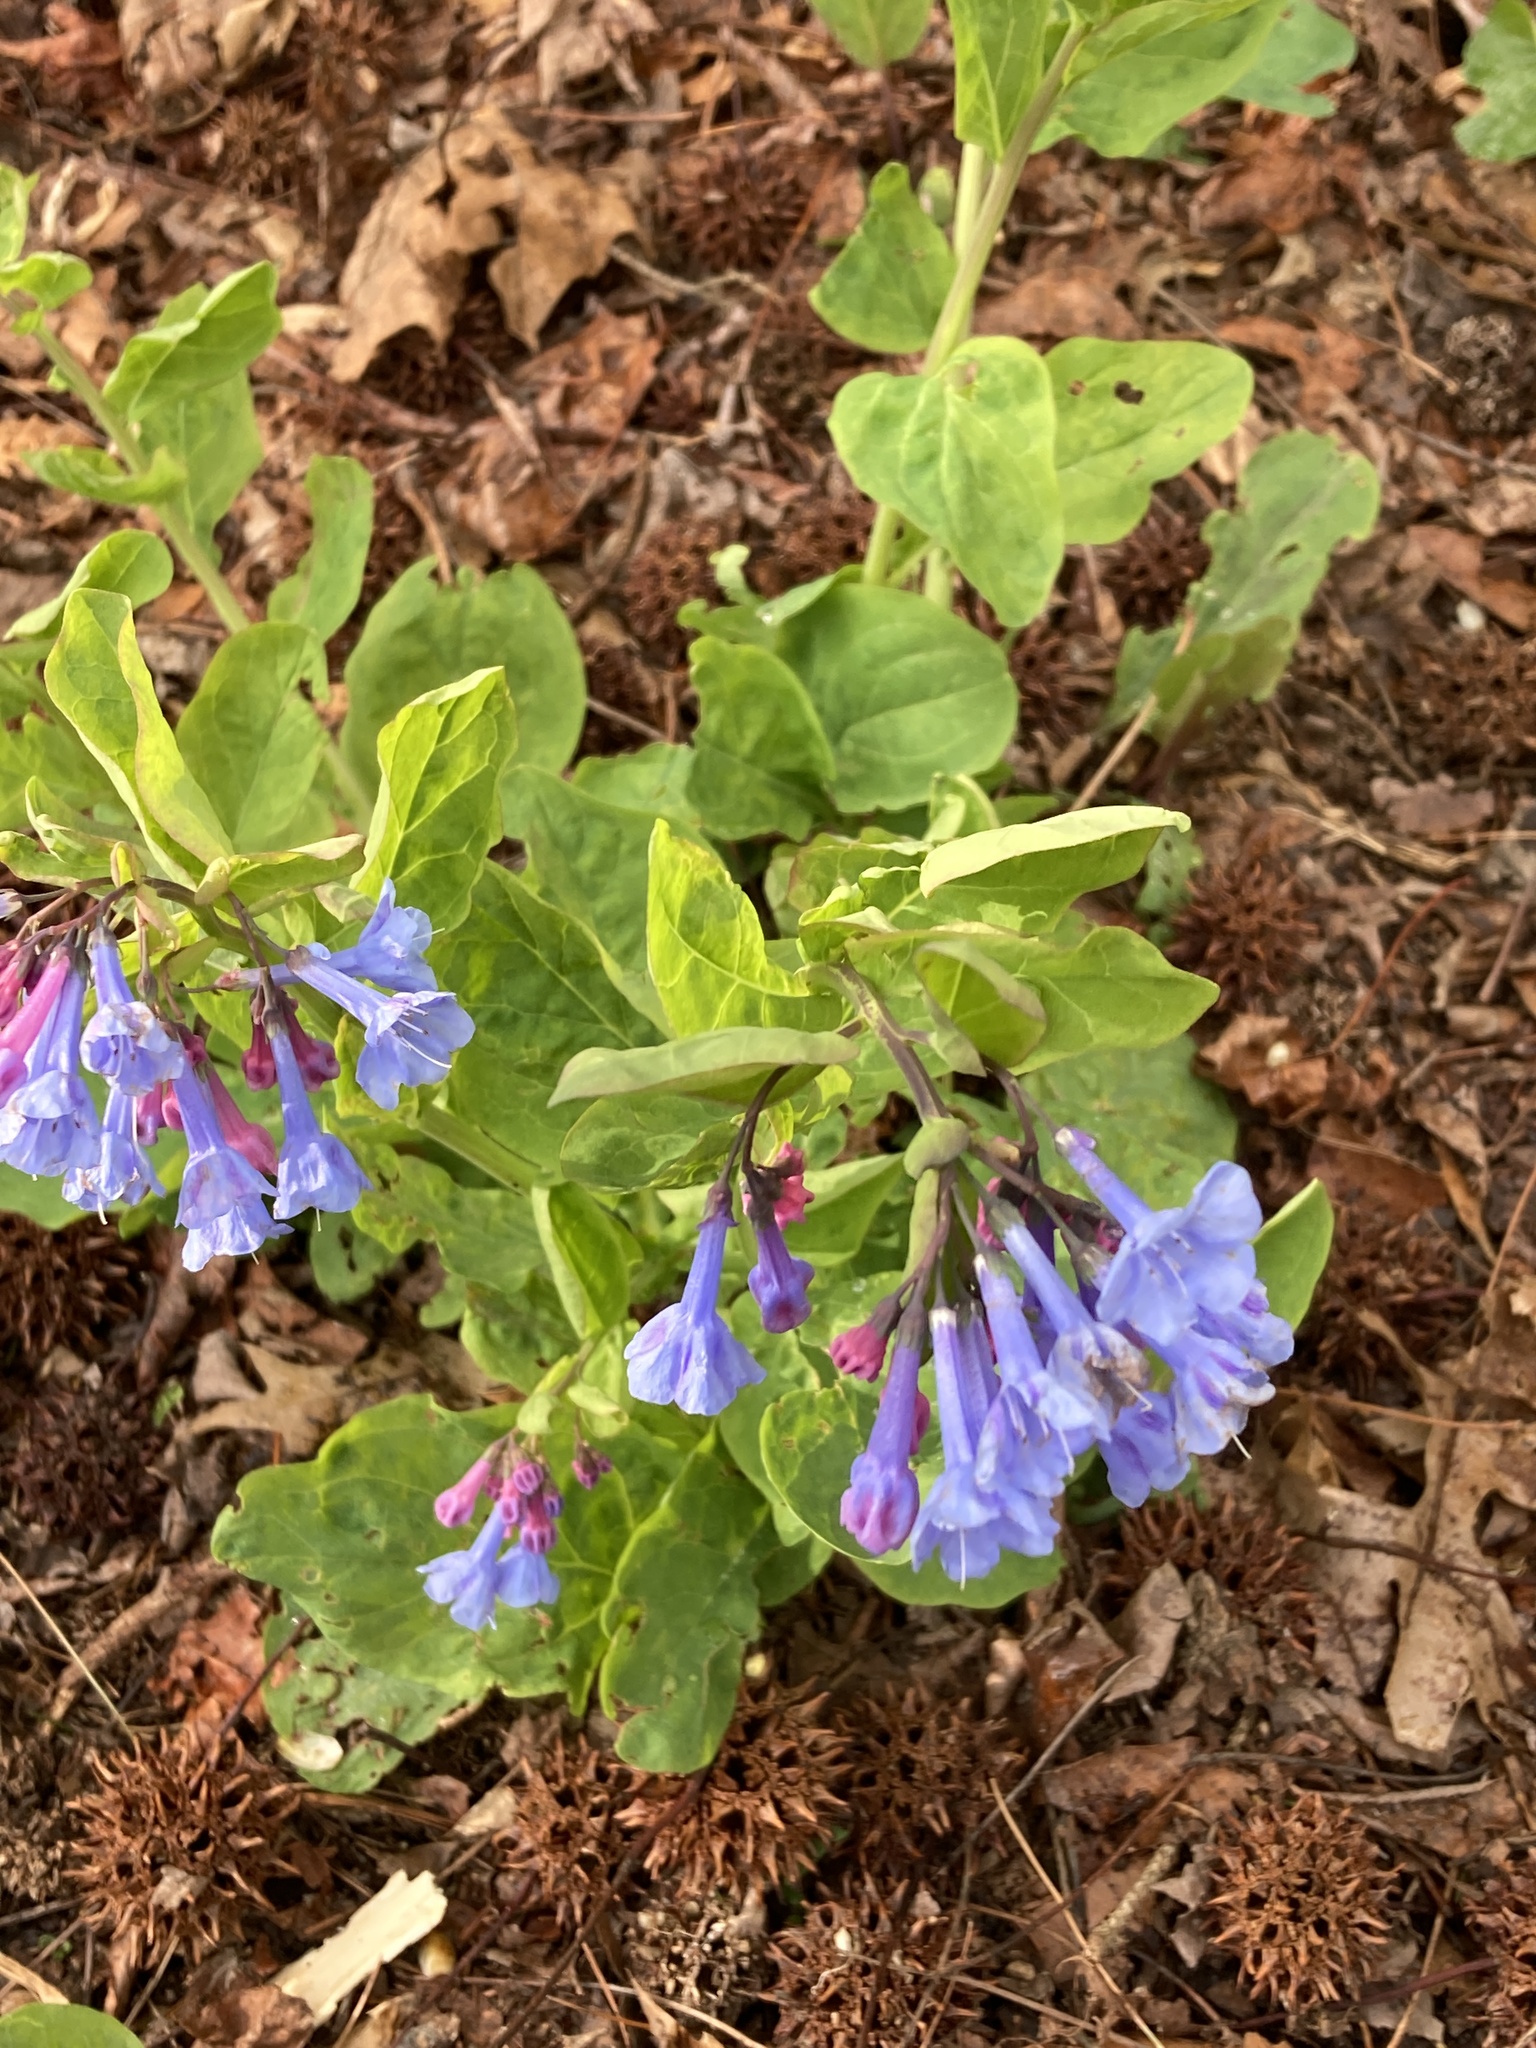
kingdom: Plantae
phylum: Tracheophyta
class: Magnoliopsida
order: Boraginales
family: Boraginaceae
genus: Mertensia
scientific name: Mertensia virginica
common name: Virginia bluebells
